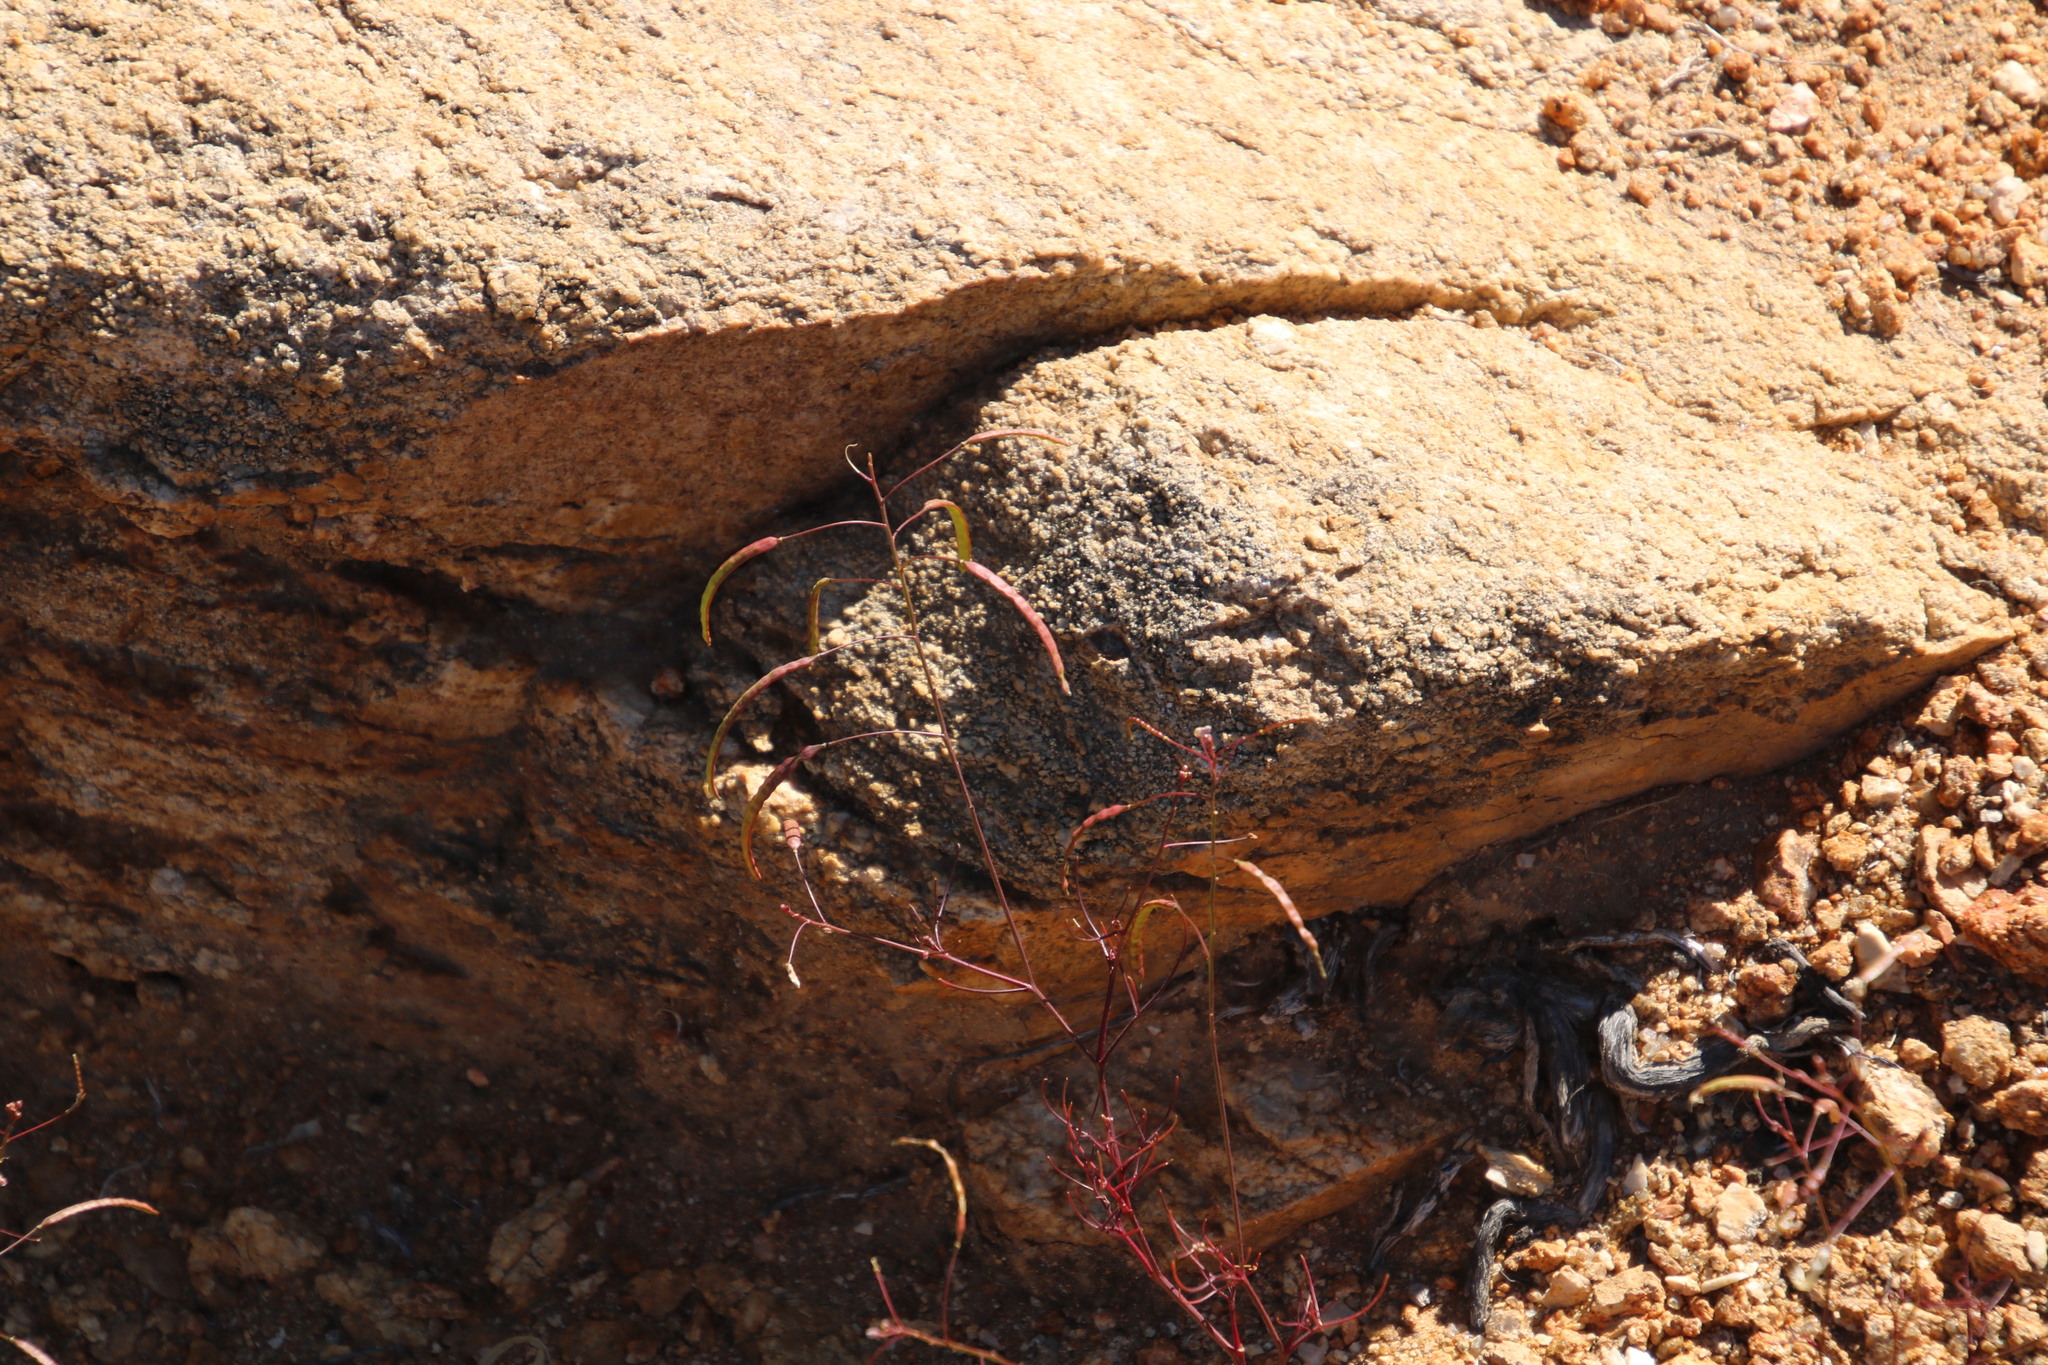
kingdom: Plantae
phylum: Tracheophyta
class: Magnoliopsida
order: Brassicales
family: Brassicaceae
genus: Heliophila
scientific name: Heliophila variabilis
